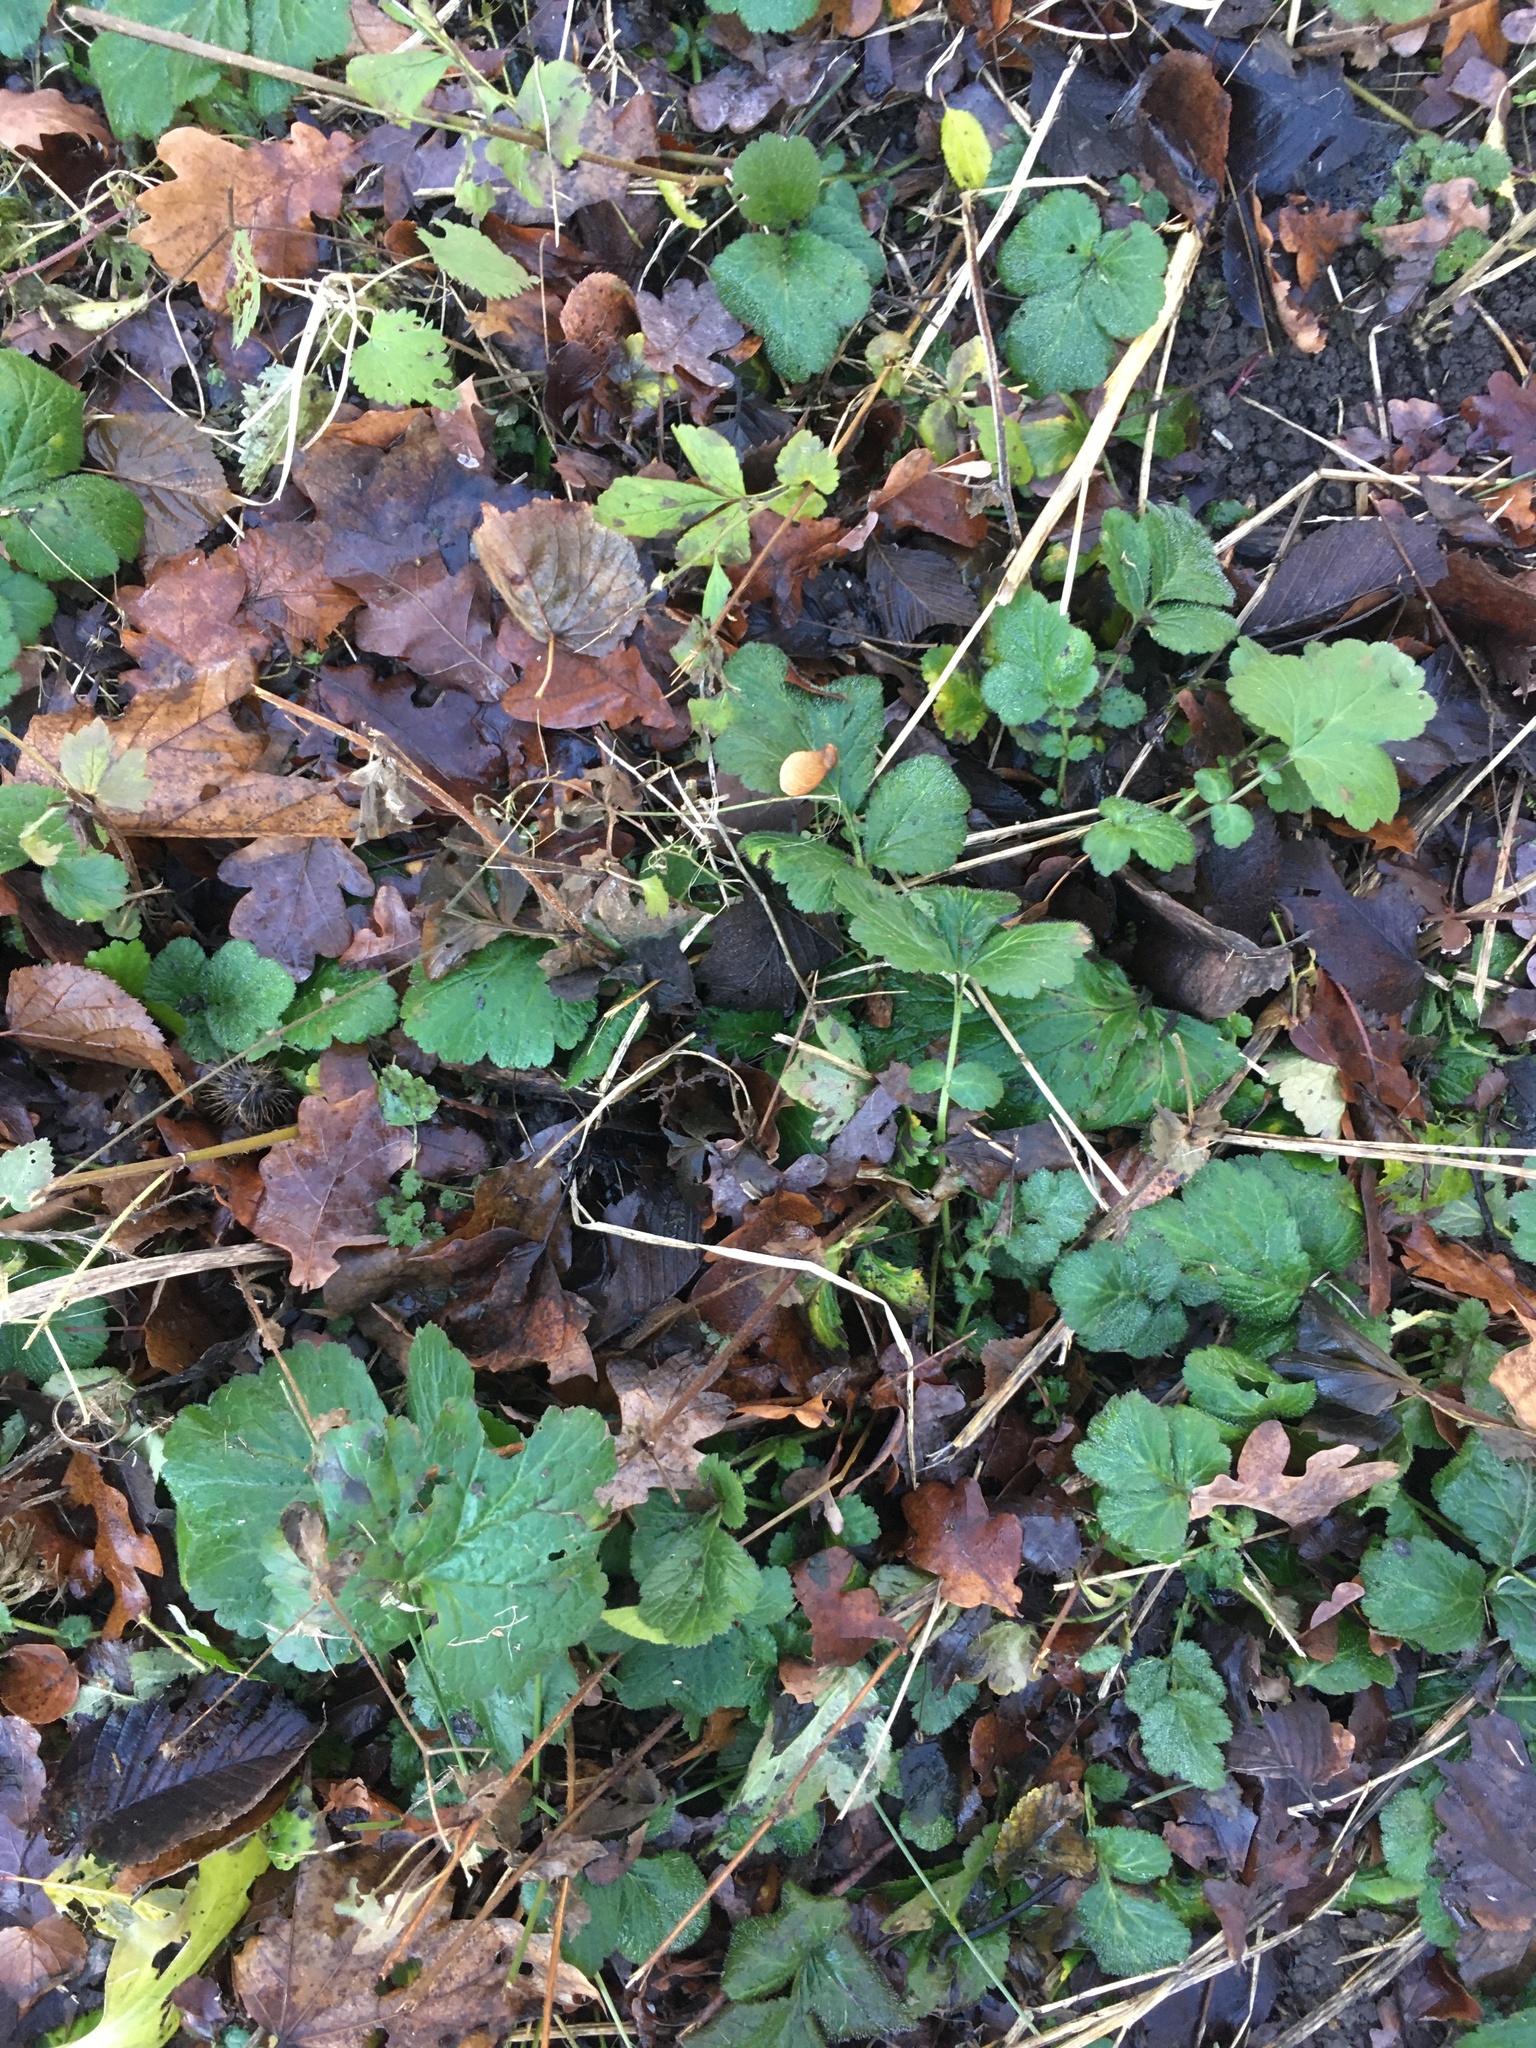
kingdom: Plantae
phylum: Tracheophyta
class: Magnoliopsida
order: Rosales
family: Rosaceae
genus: Geum
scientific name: Geum urbanum
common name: Wood avens
